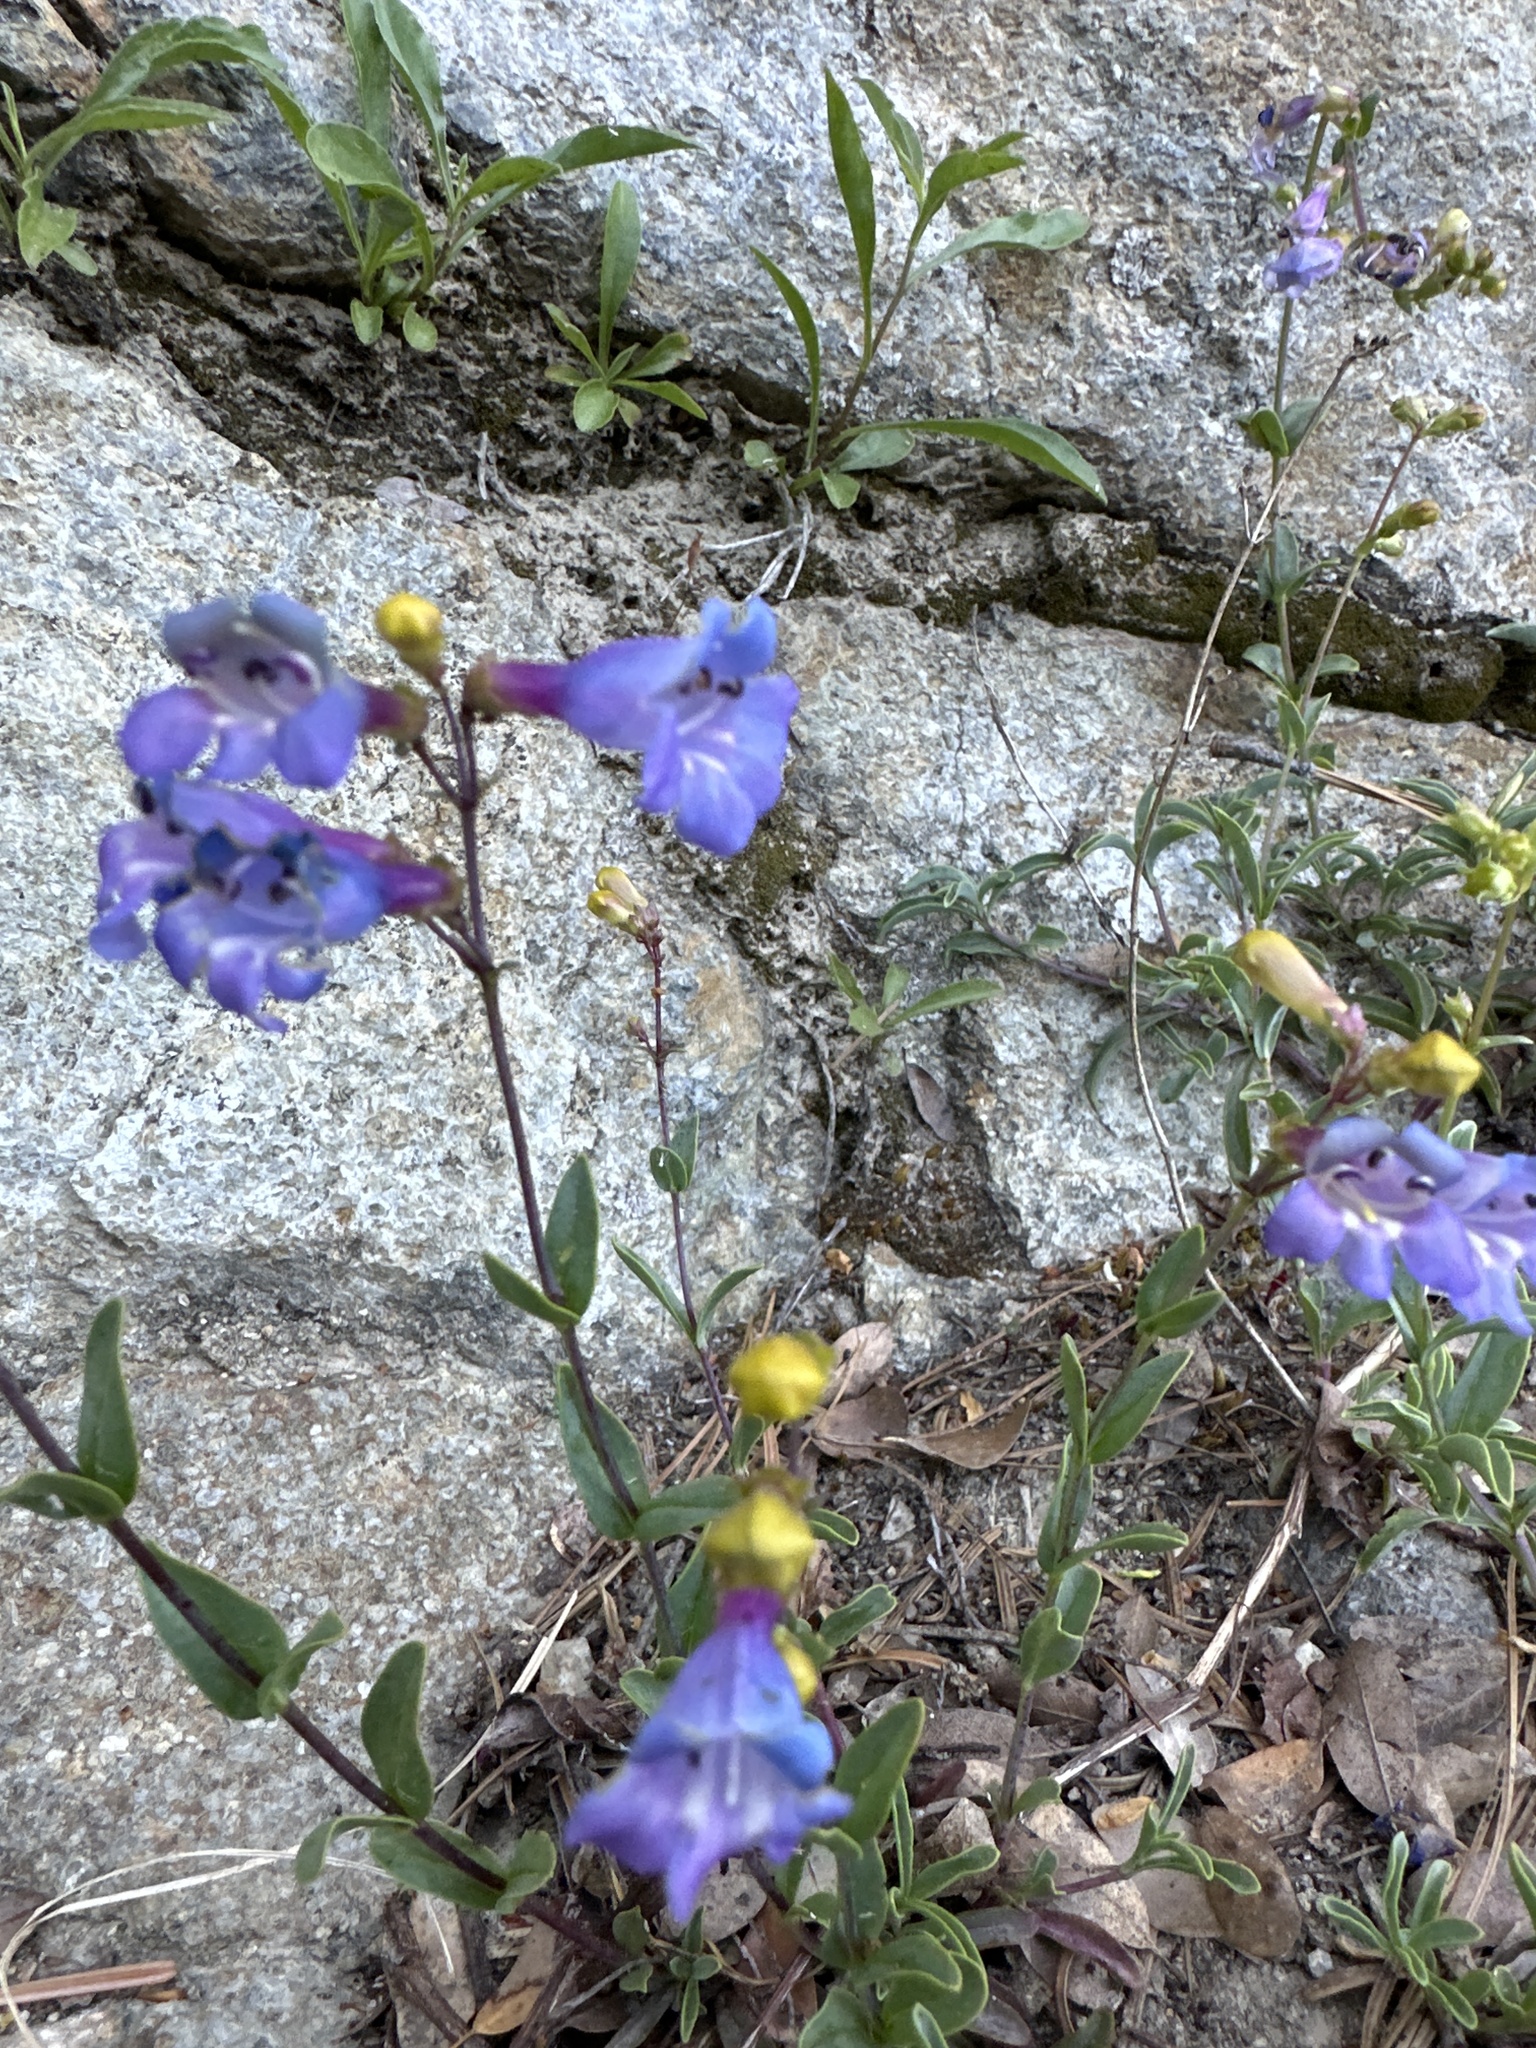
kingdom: Plantae
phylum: Tracheophyta
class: Magnoliopsida
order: Lamiales
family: Plantaginaceae
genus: Penstemon
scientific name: Penstemon azureus
